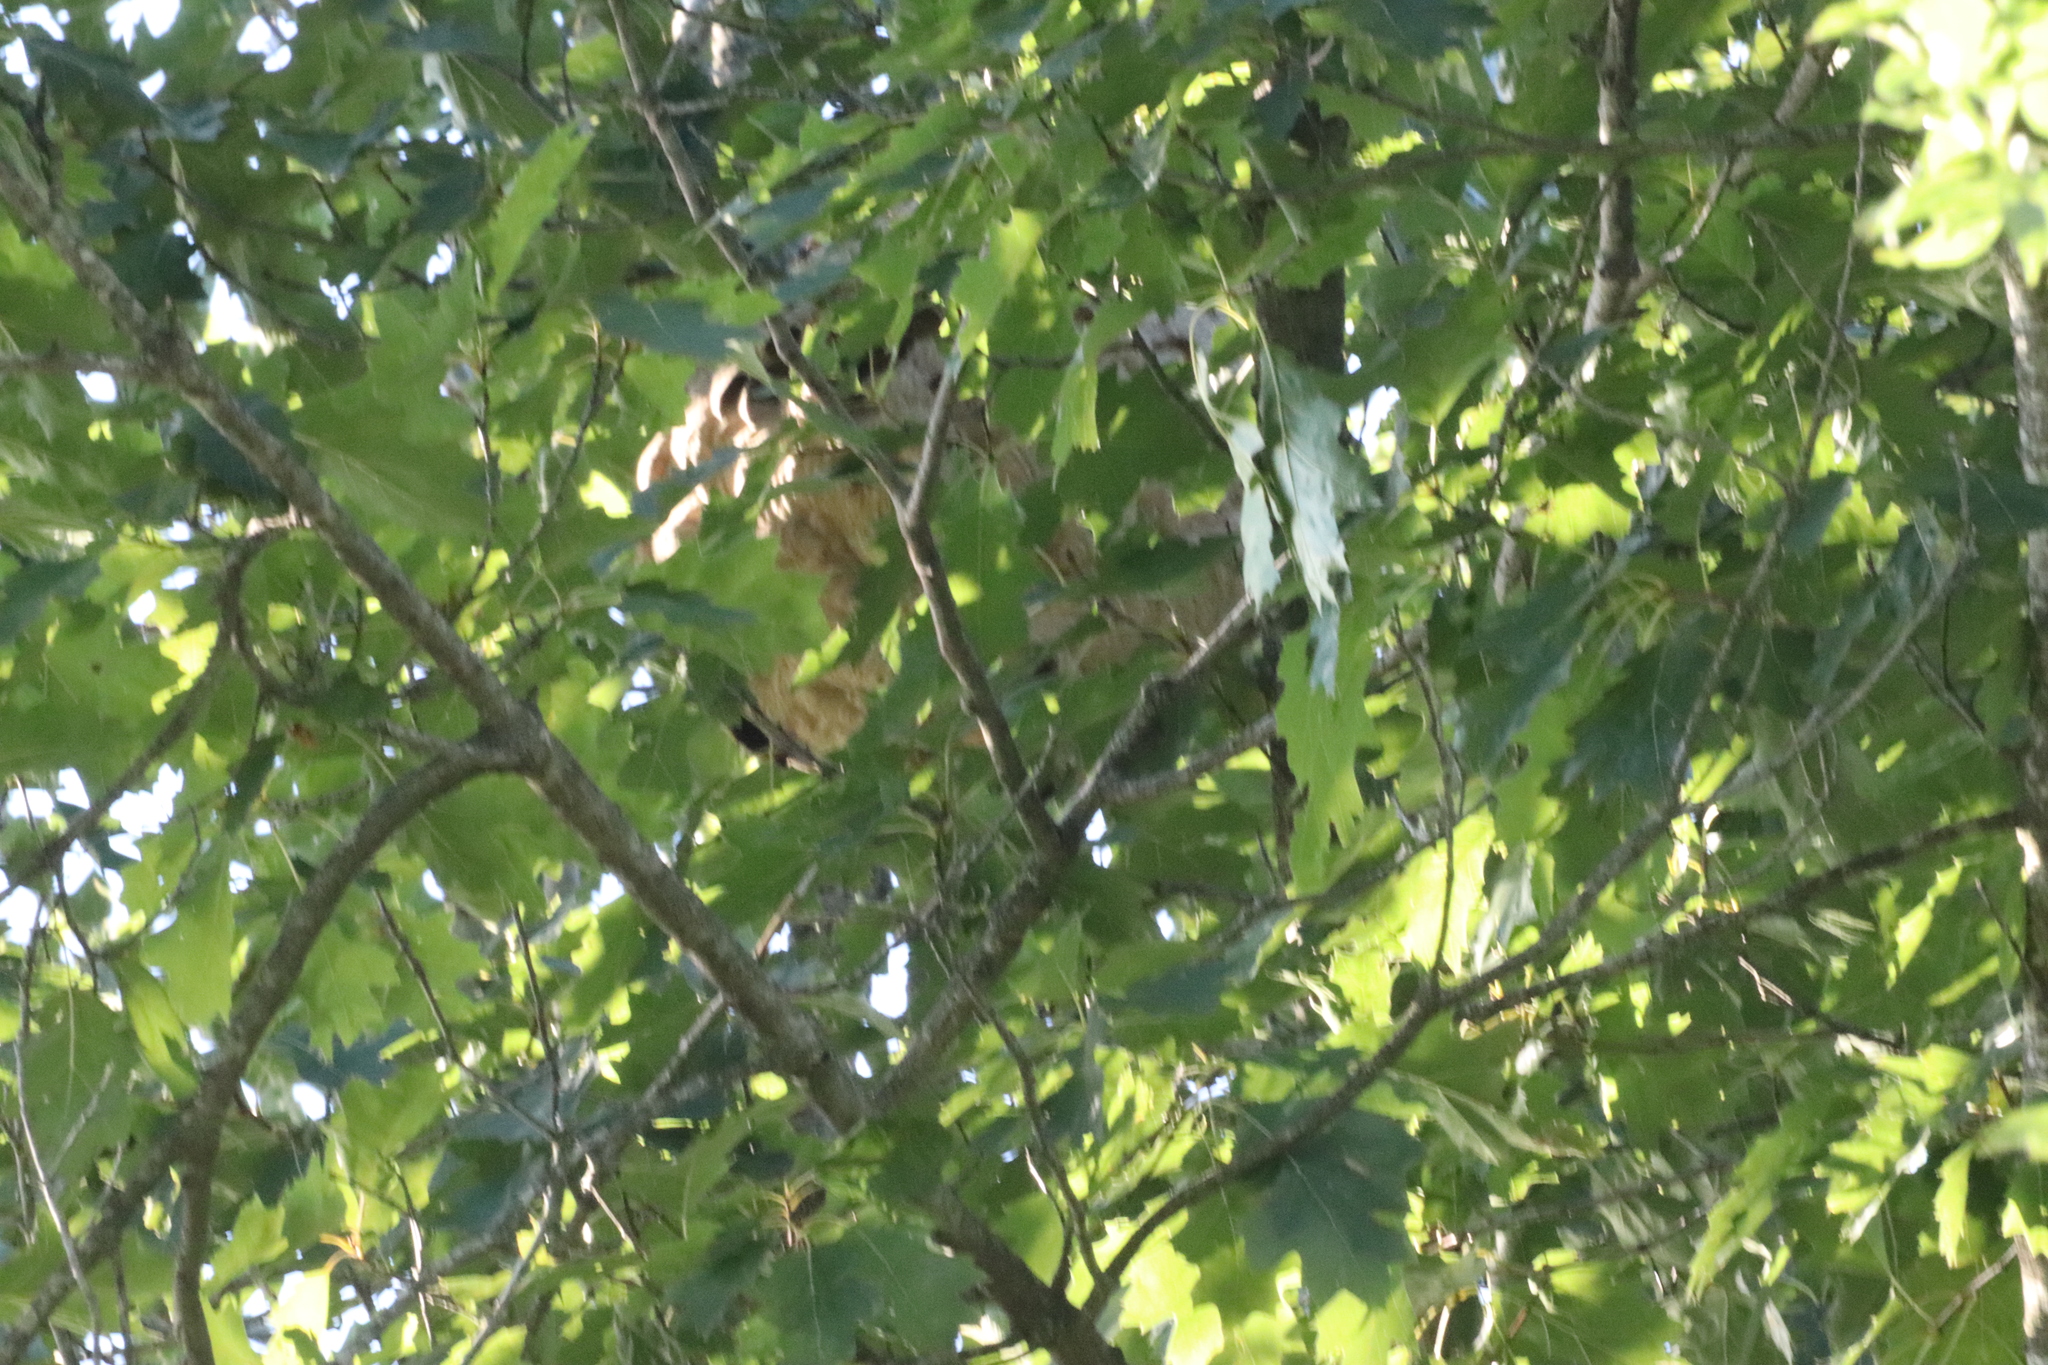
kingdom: Animalia
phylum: Arthropoda
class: Insecta
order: Hymenoptera
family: Vespidae
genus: Vespa
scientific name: Vespa velutina
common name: Asian hornet
